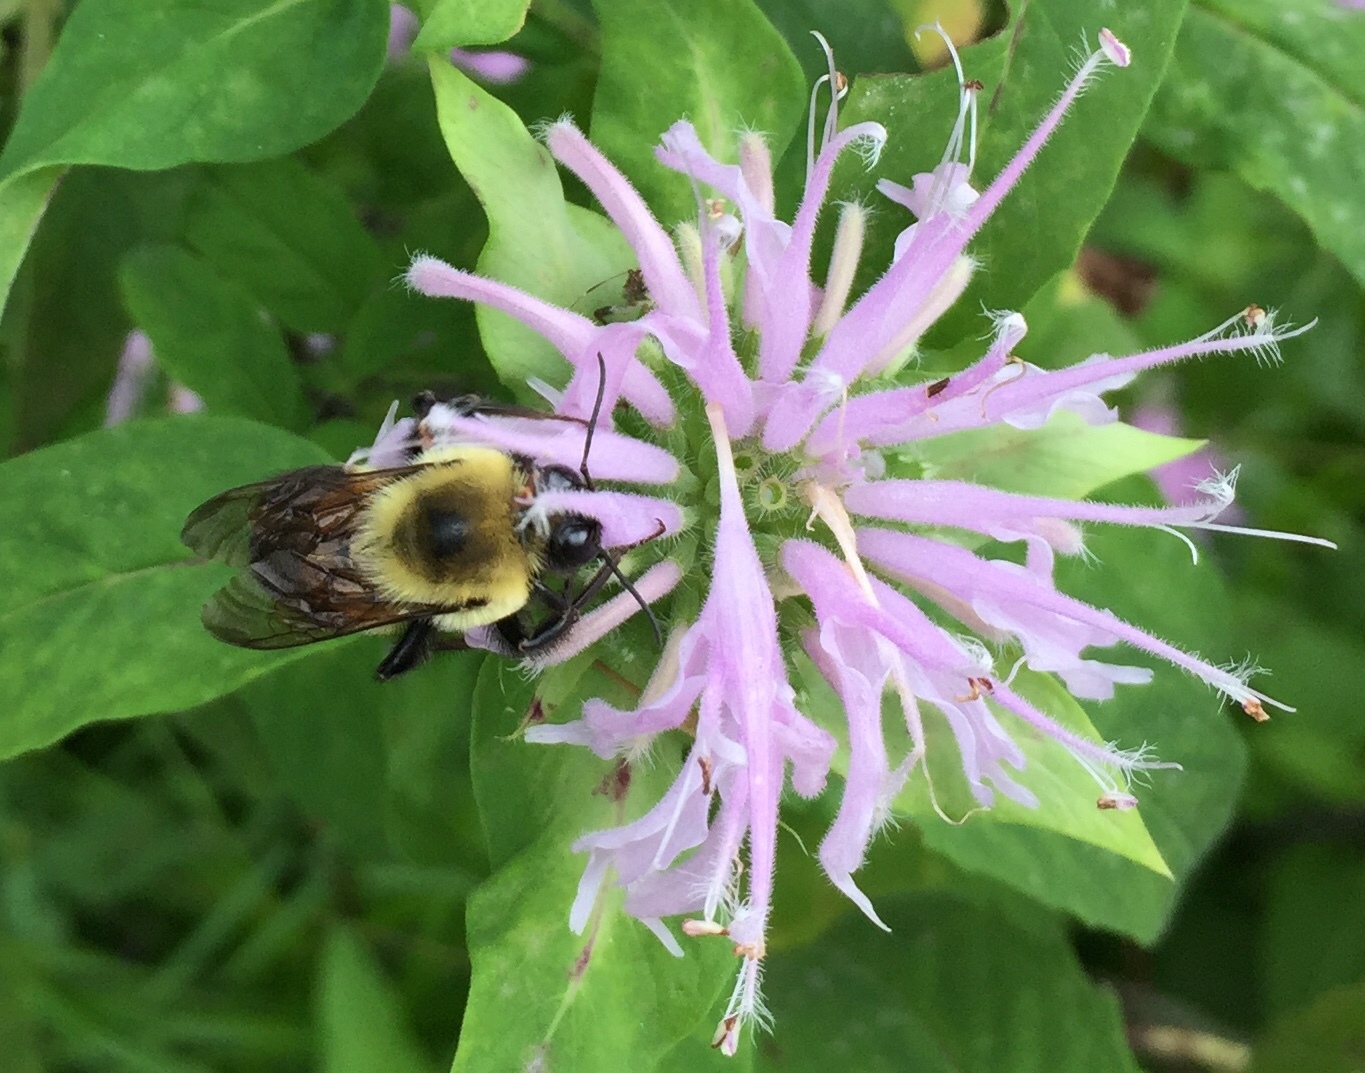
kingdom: Animalia
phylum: Arthropoda
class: Insecta
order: Hymenoptera
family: Apidae
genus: Bombus
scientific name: Bombus griseocollis
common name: Brown-belted bumble bee
